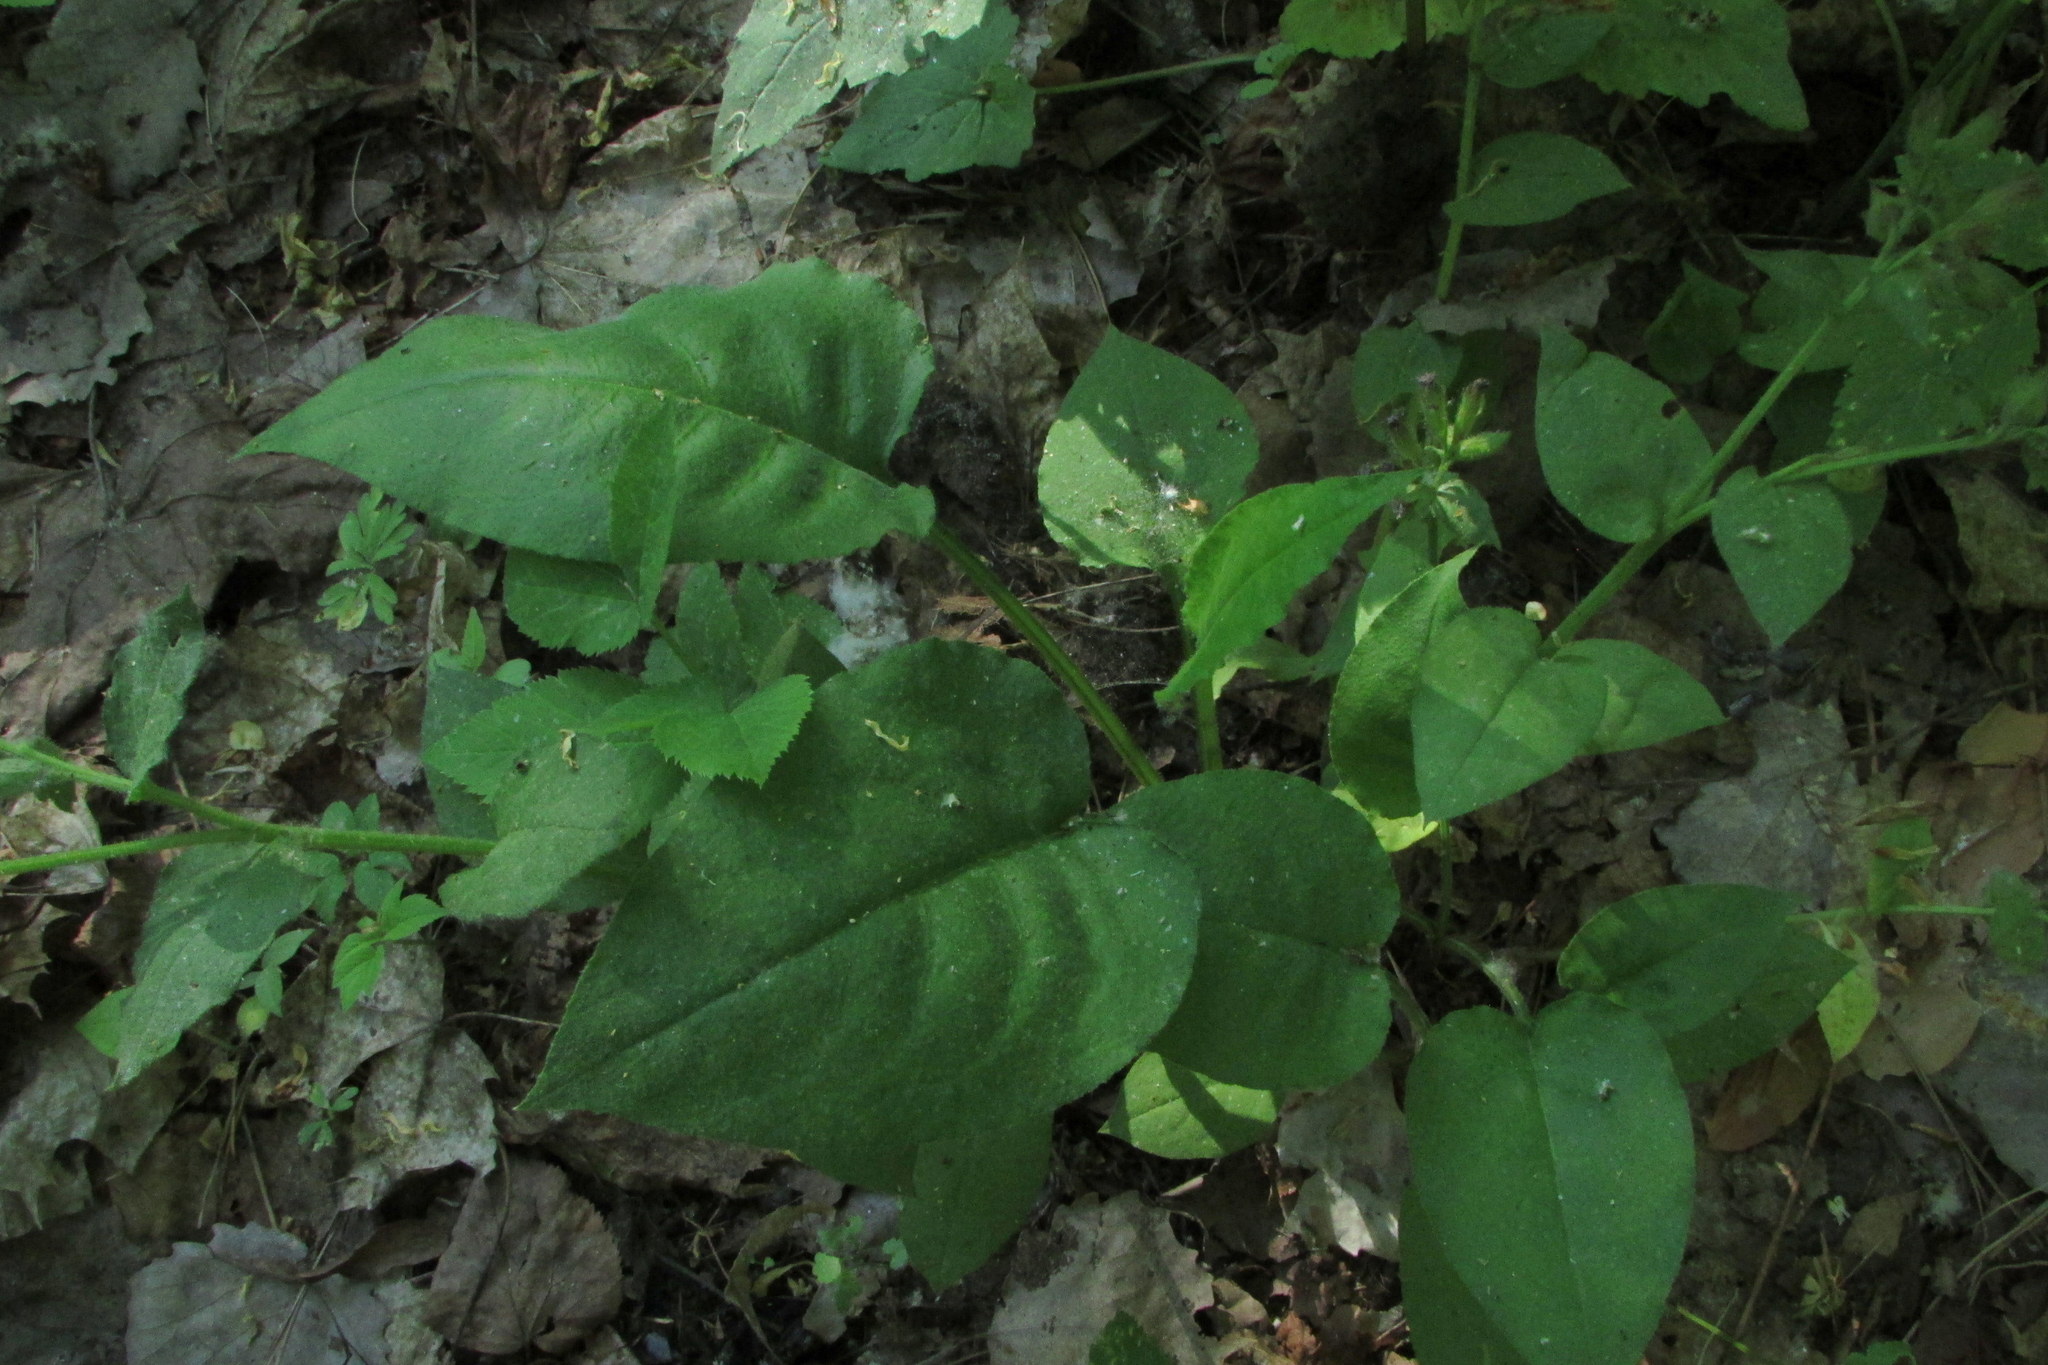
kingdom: Plantae
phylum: Tracheophyta
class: Magnoliopsida
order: Boraginales
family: Boraginaceae
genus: Pulmonaria
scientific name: Pulmonaria obscura
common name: Suffolk lungwort
